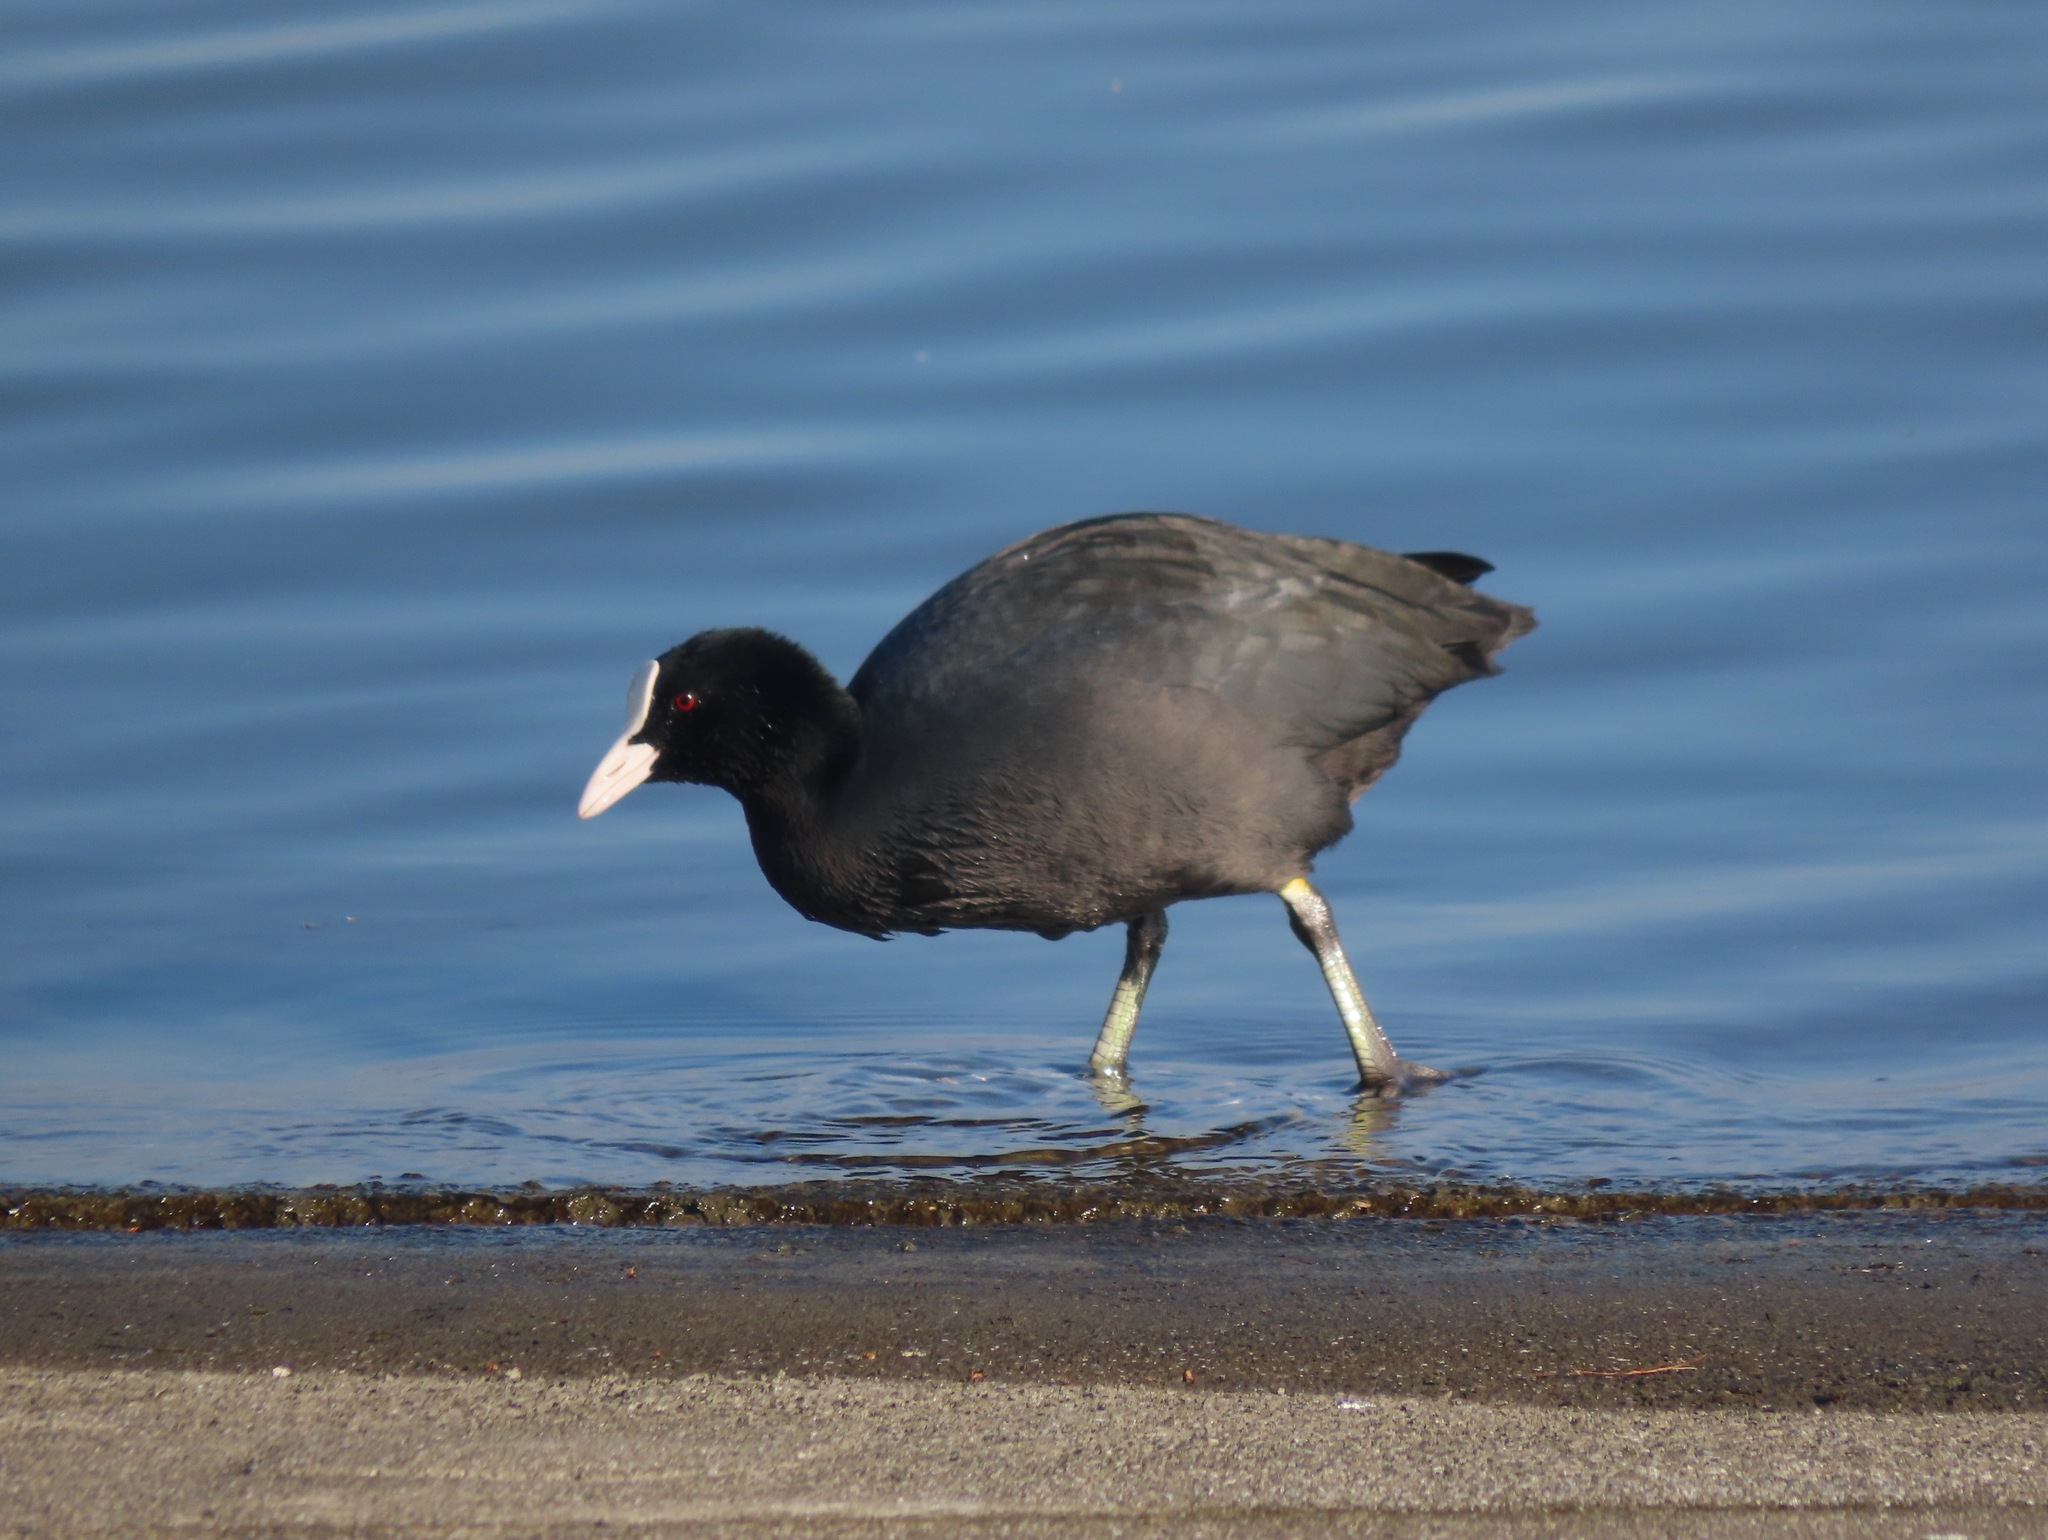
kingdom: Animalia
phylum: Chordata
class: Aves
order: Gruiformes
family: Rallidae
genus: Fulica
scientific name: Fulica atra
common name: Eurasian coot
